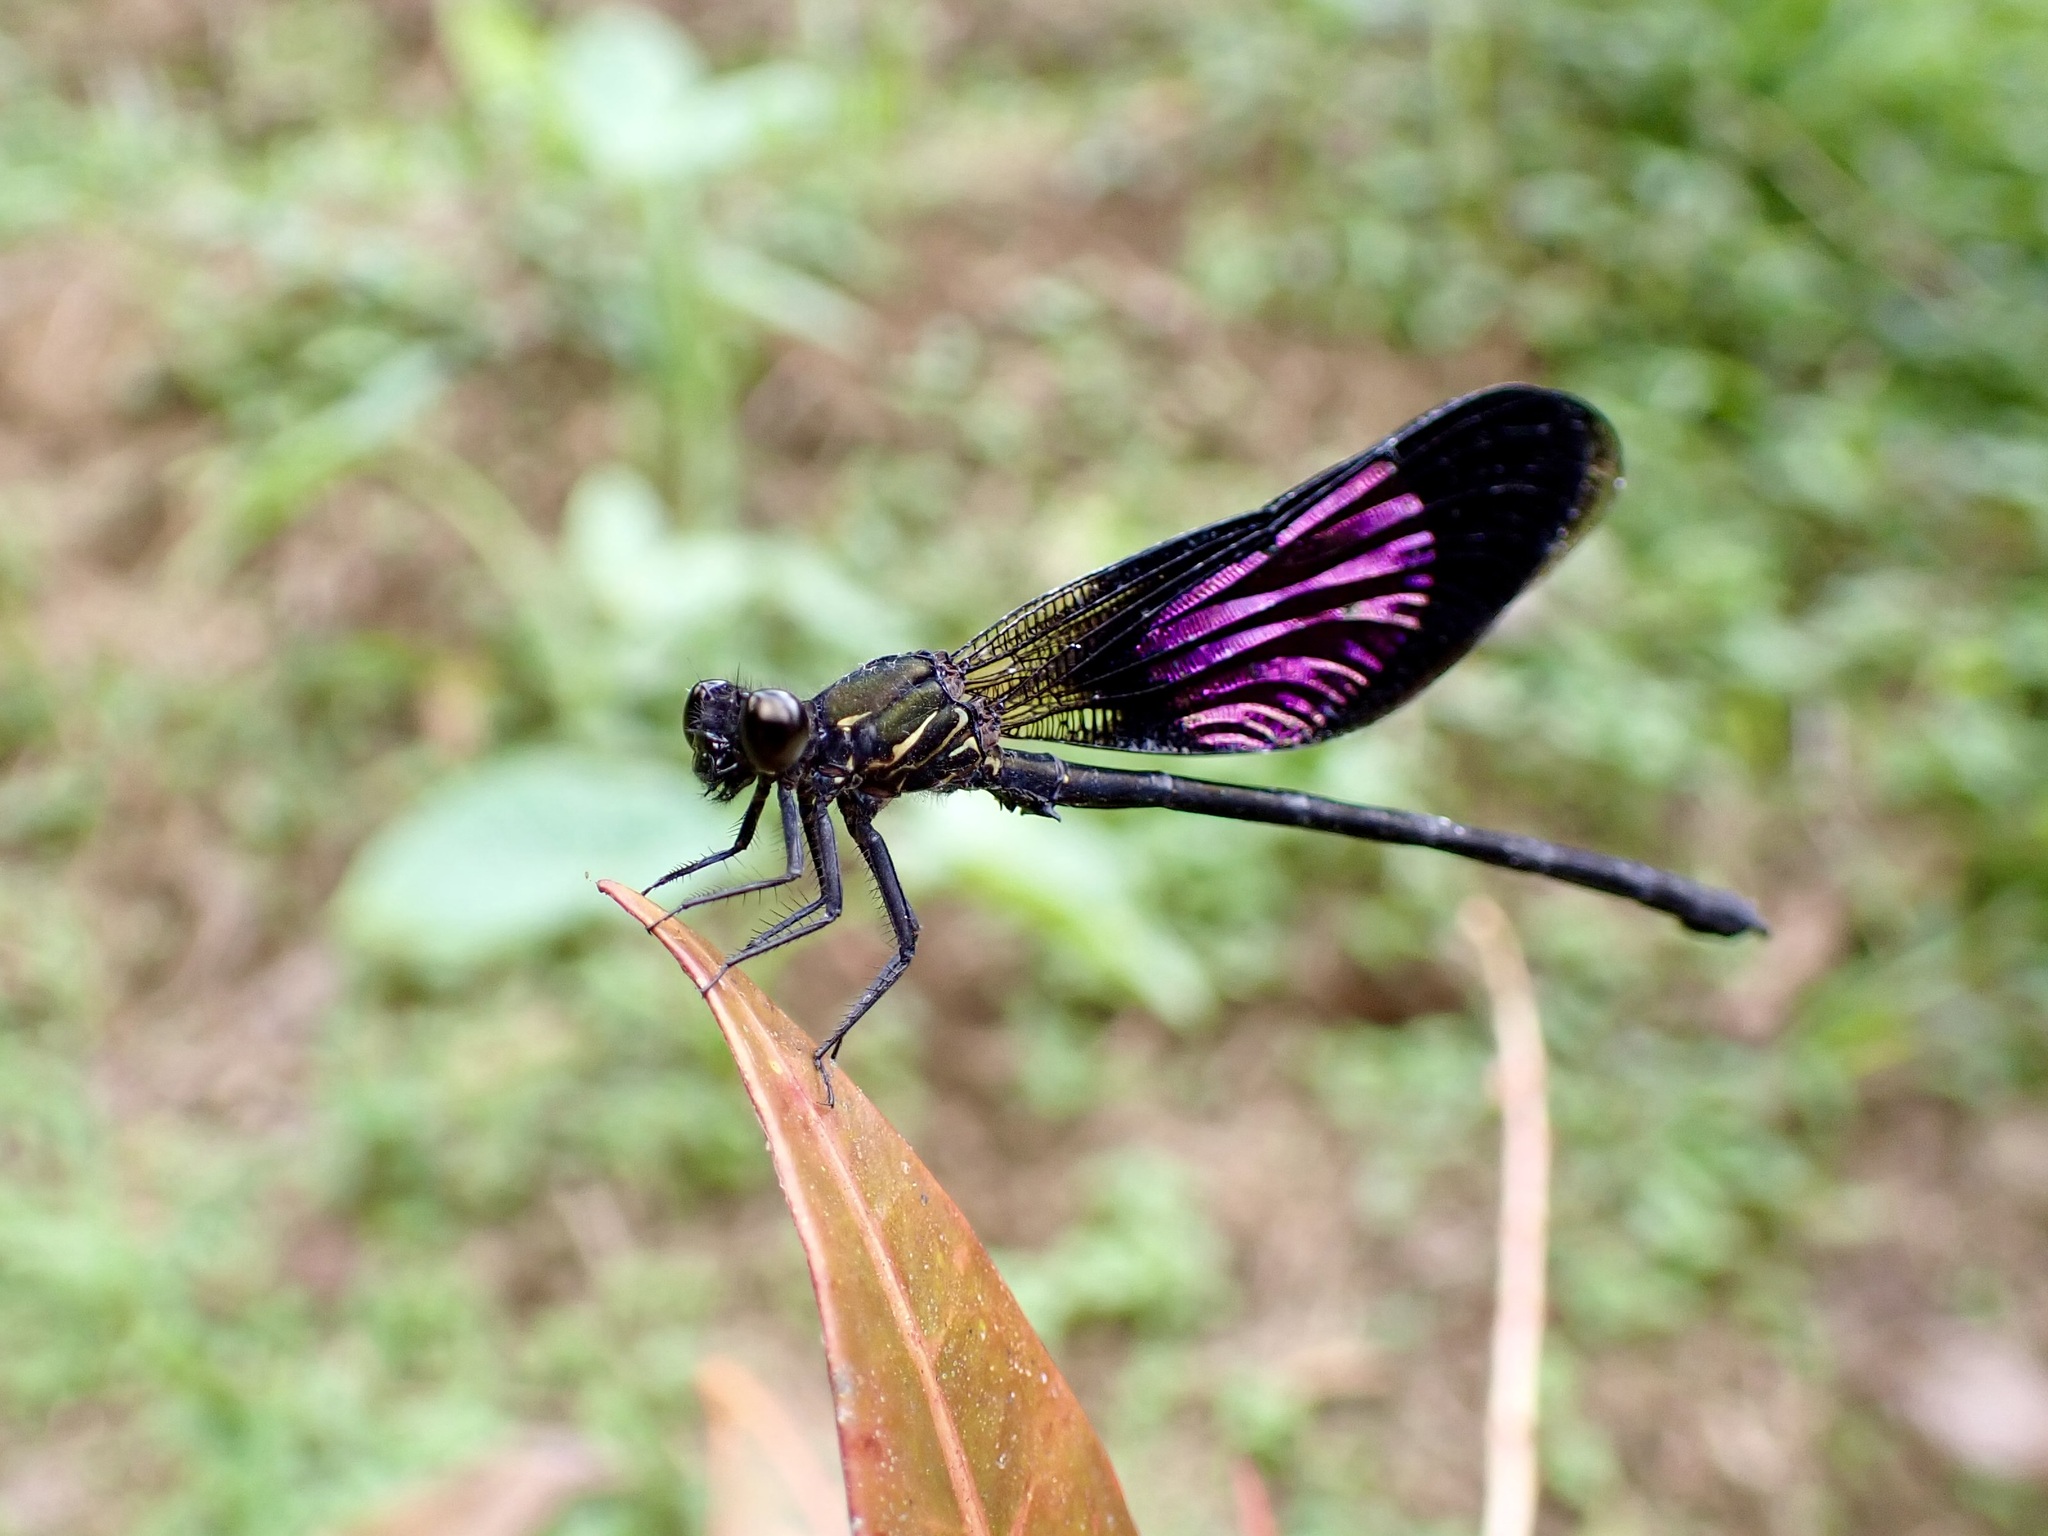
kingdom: Animalia
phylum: Arthropoda
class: Insecta
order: Odonata
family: Euphaeidae
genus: Euphaea
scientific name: Euphaea variegata
